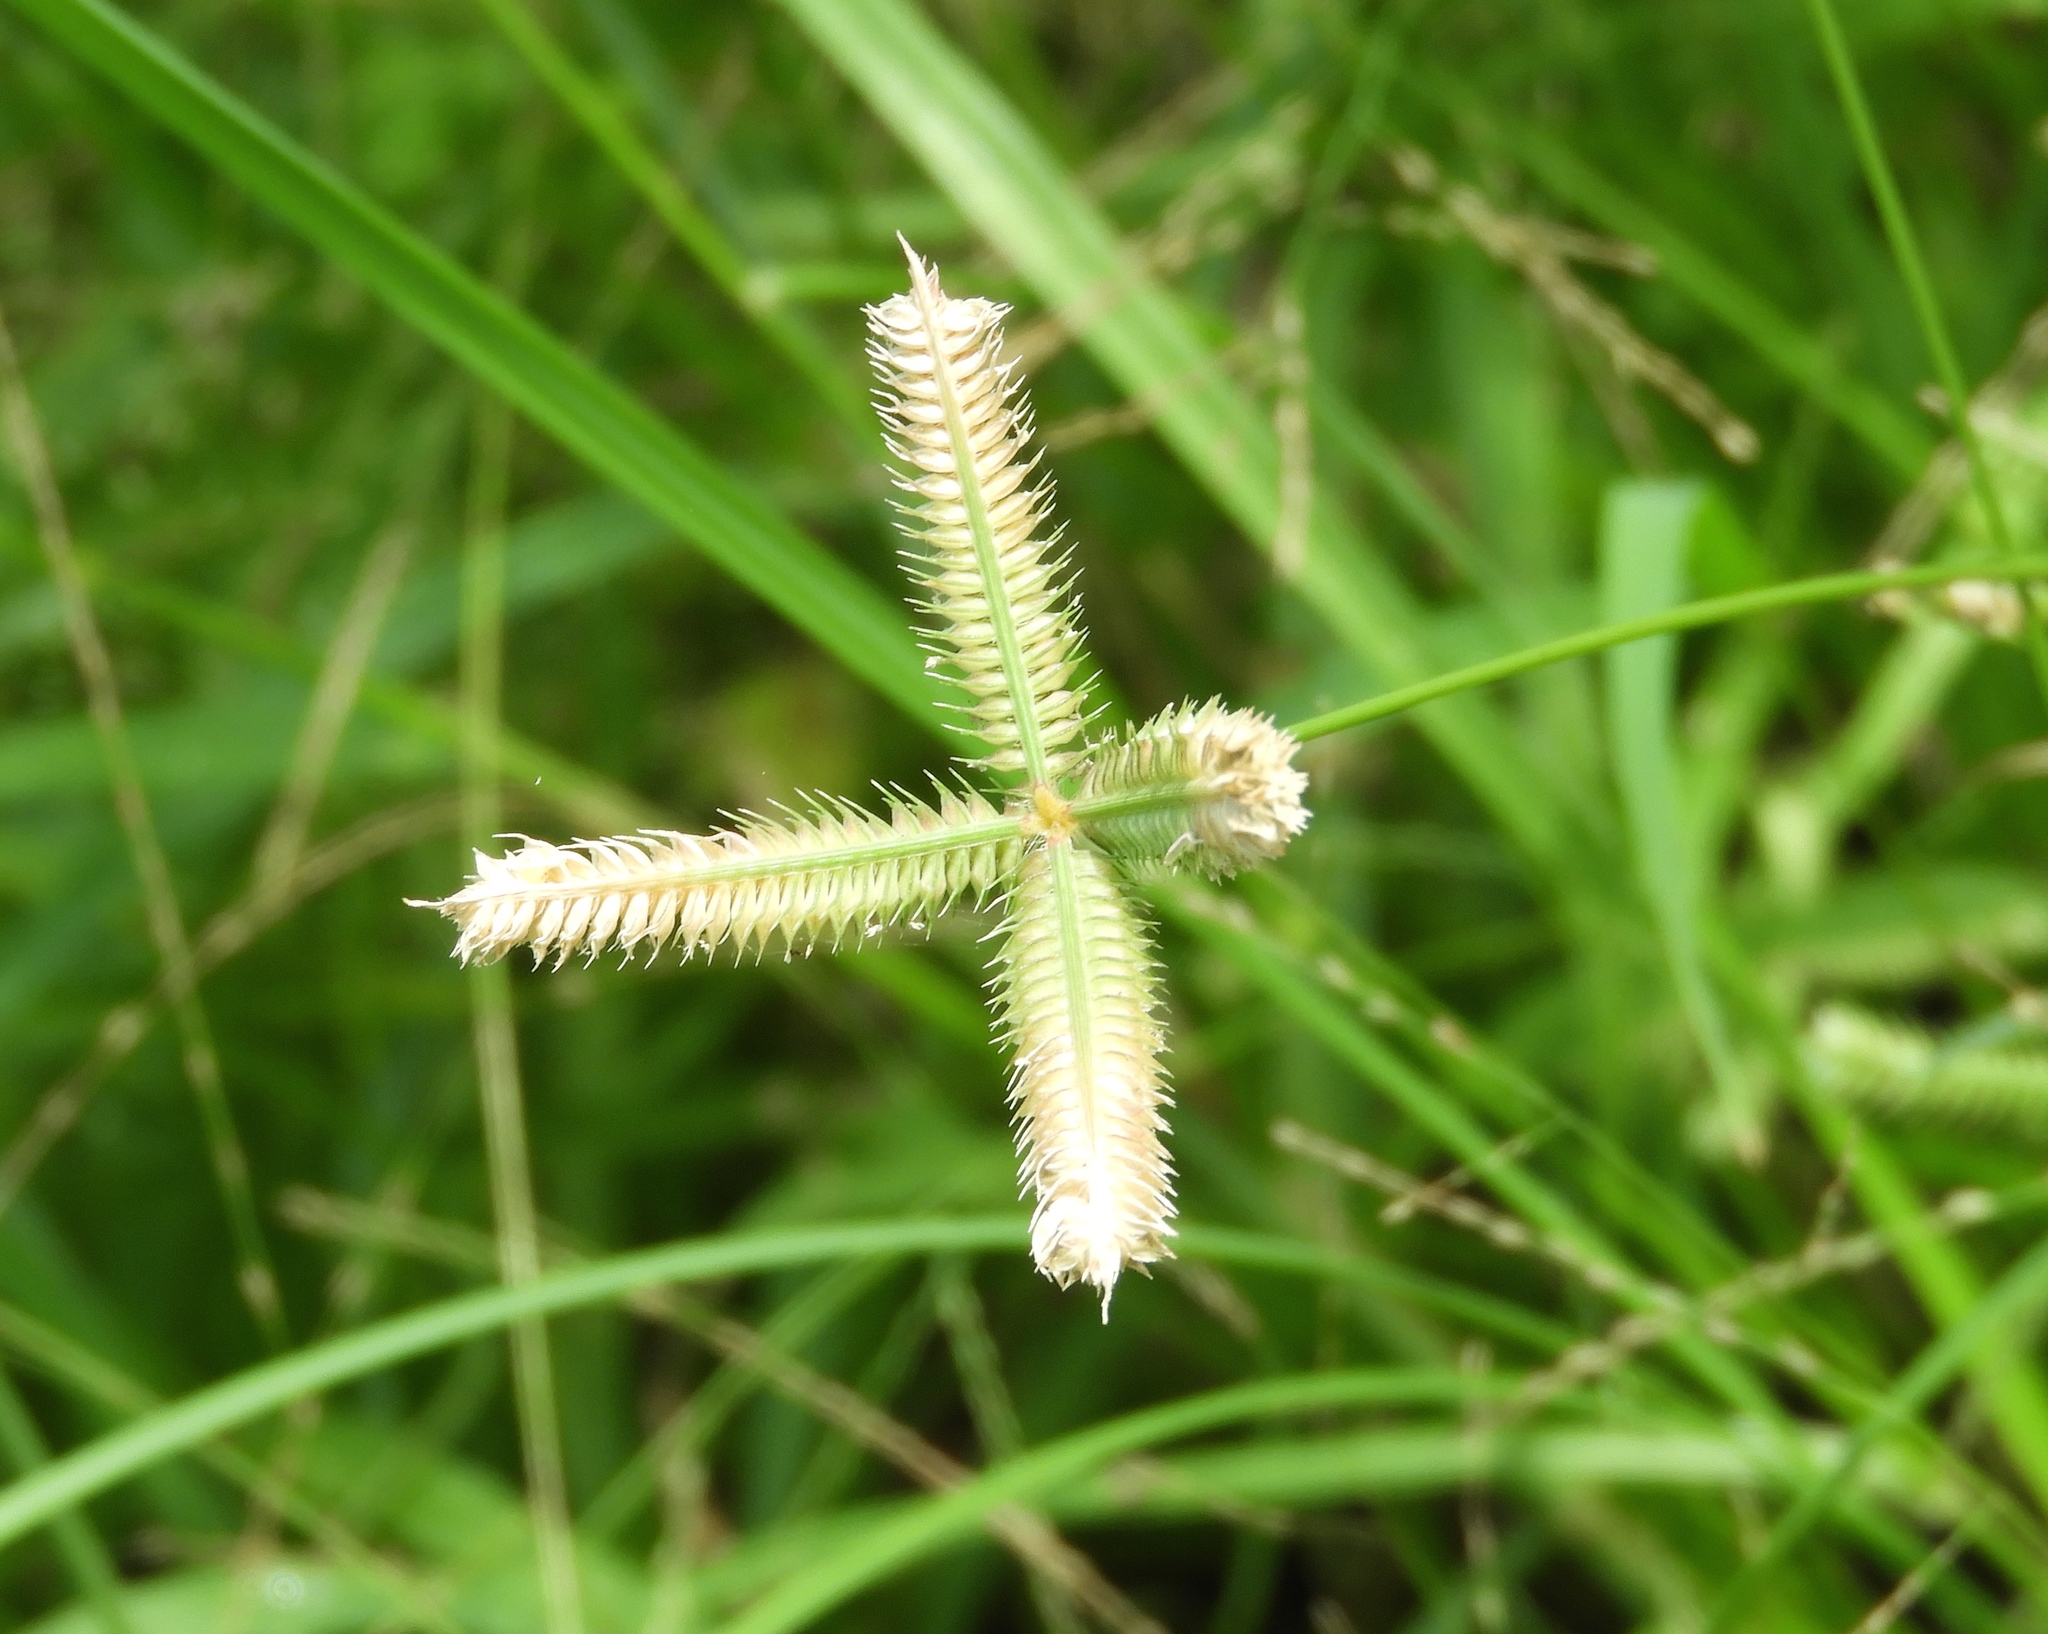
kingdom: Plantae
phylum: Tracheophyta
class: Liliopsida
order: Poales
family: Poaceae
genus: Dactyloctenium
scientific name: Dactyloctenium aegyptium
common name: Egyptian grass
